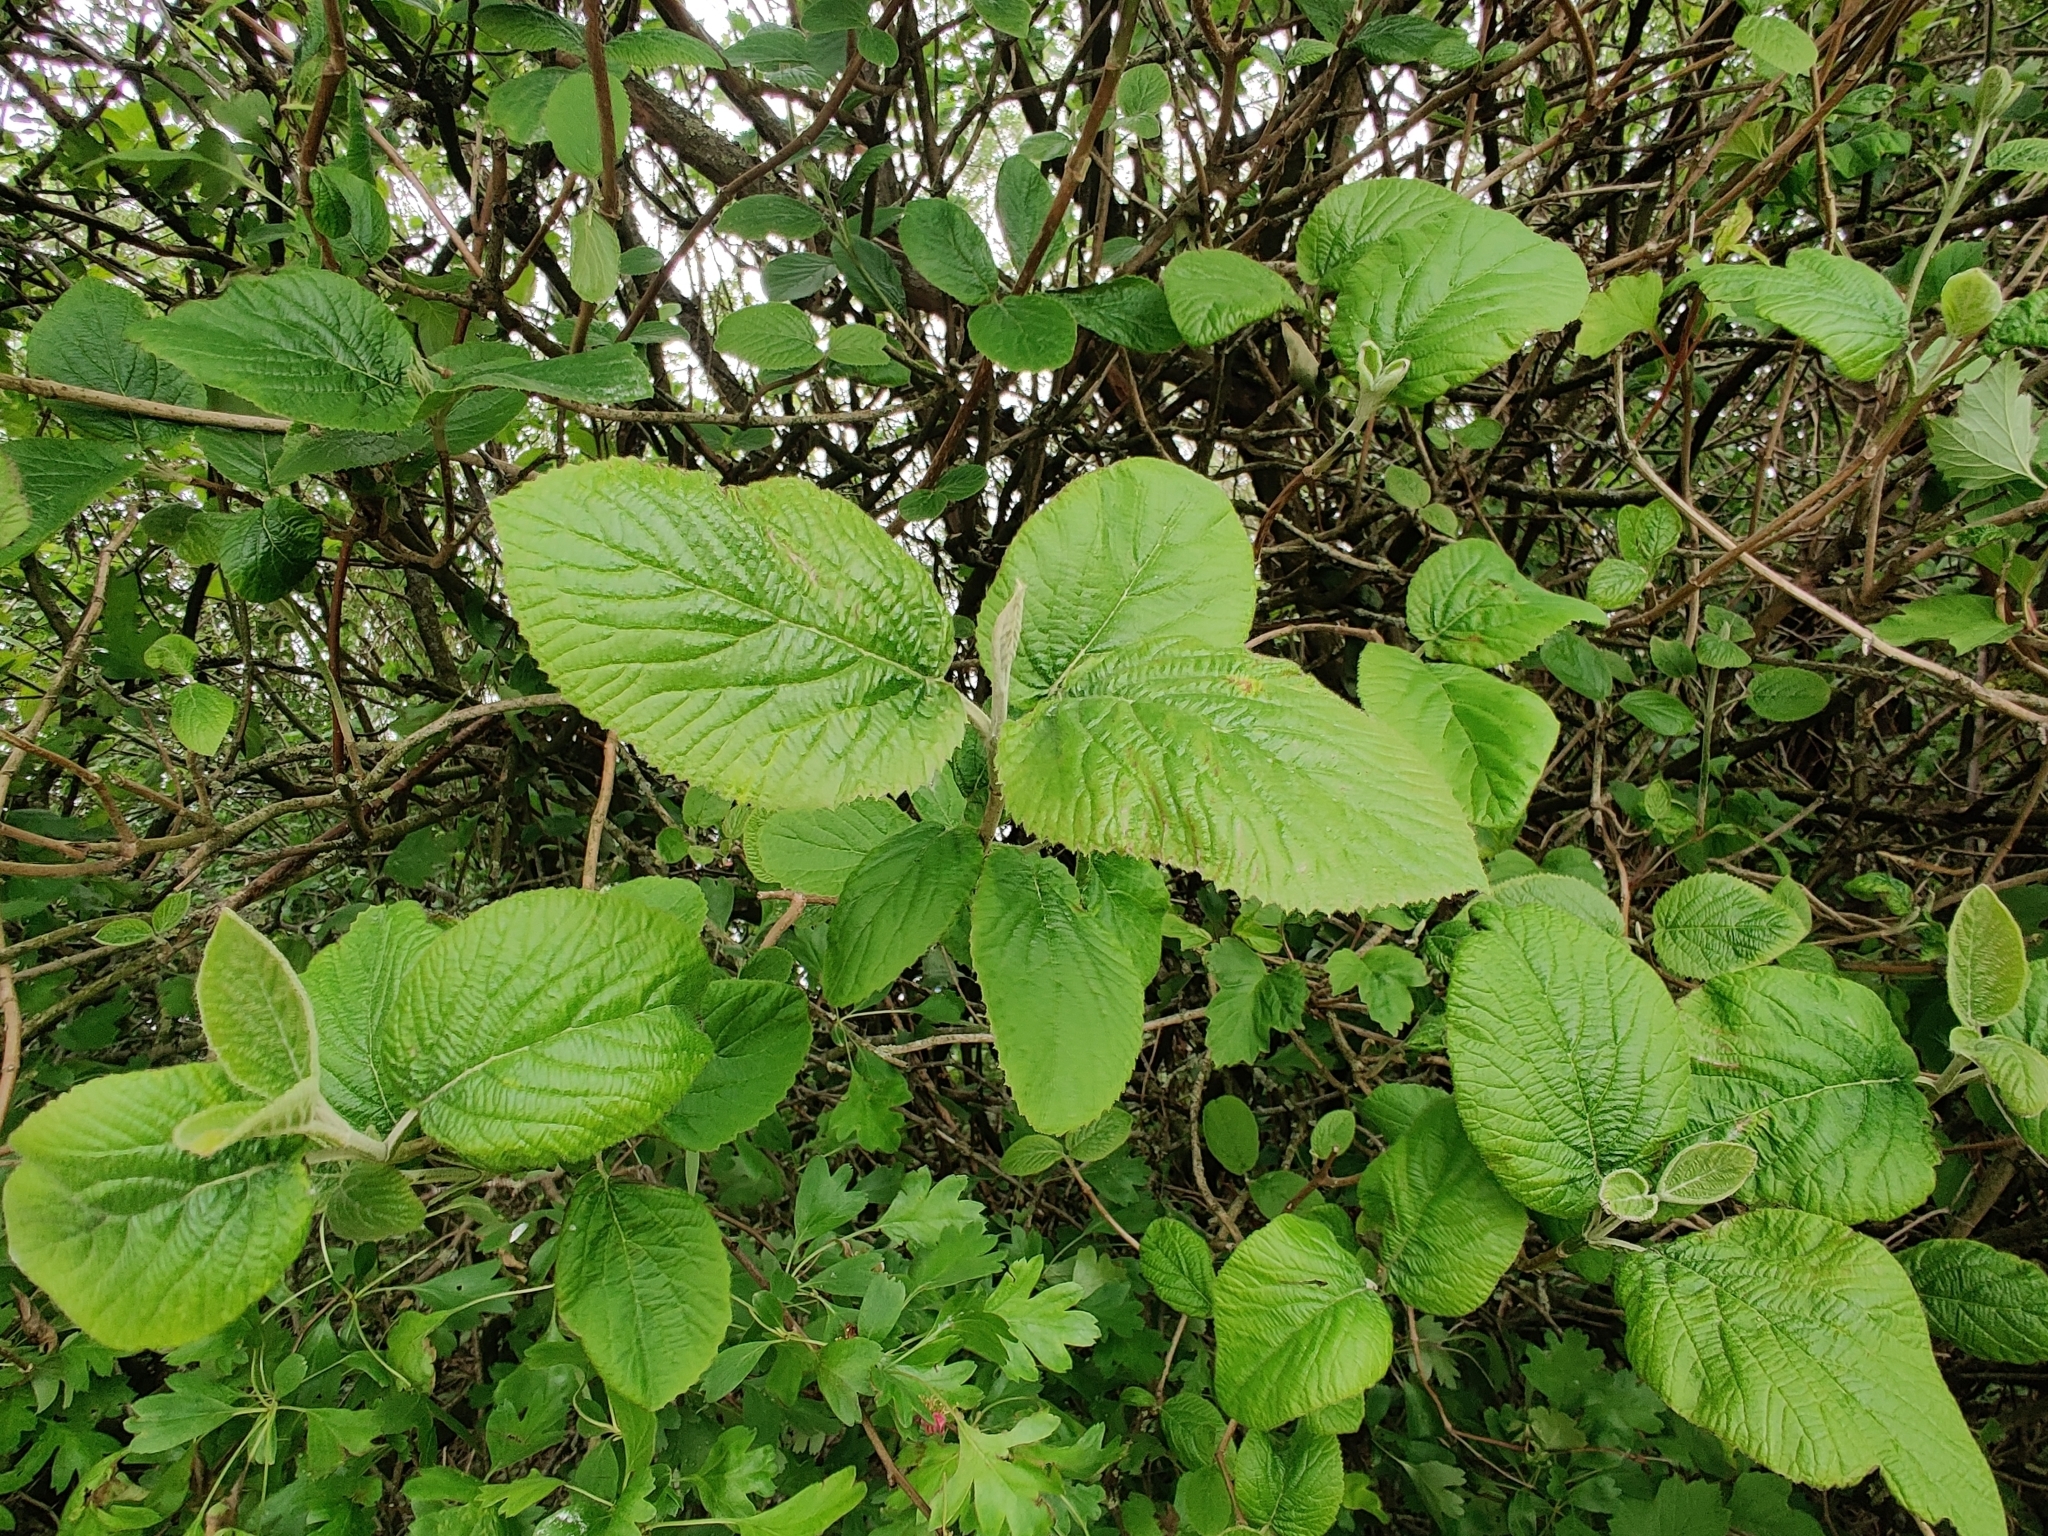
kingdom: Plantae
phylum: Tracheophyta
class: Magnoliopsida
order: Dipsacales
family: Viburnaceae
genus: Viburnum
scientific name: Viburnum lantana
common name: Wayfaring tree
